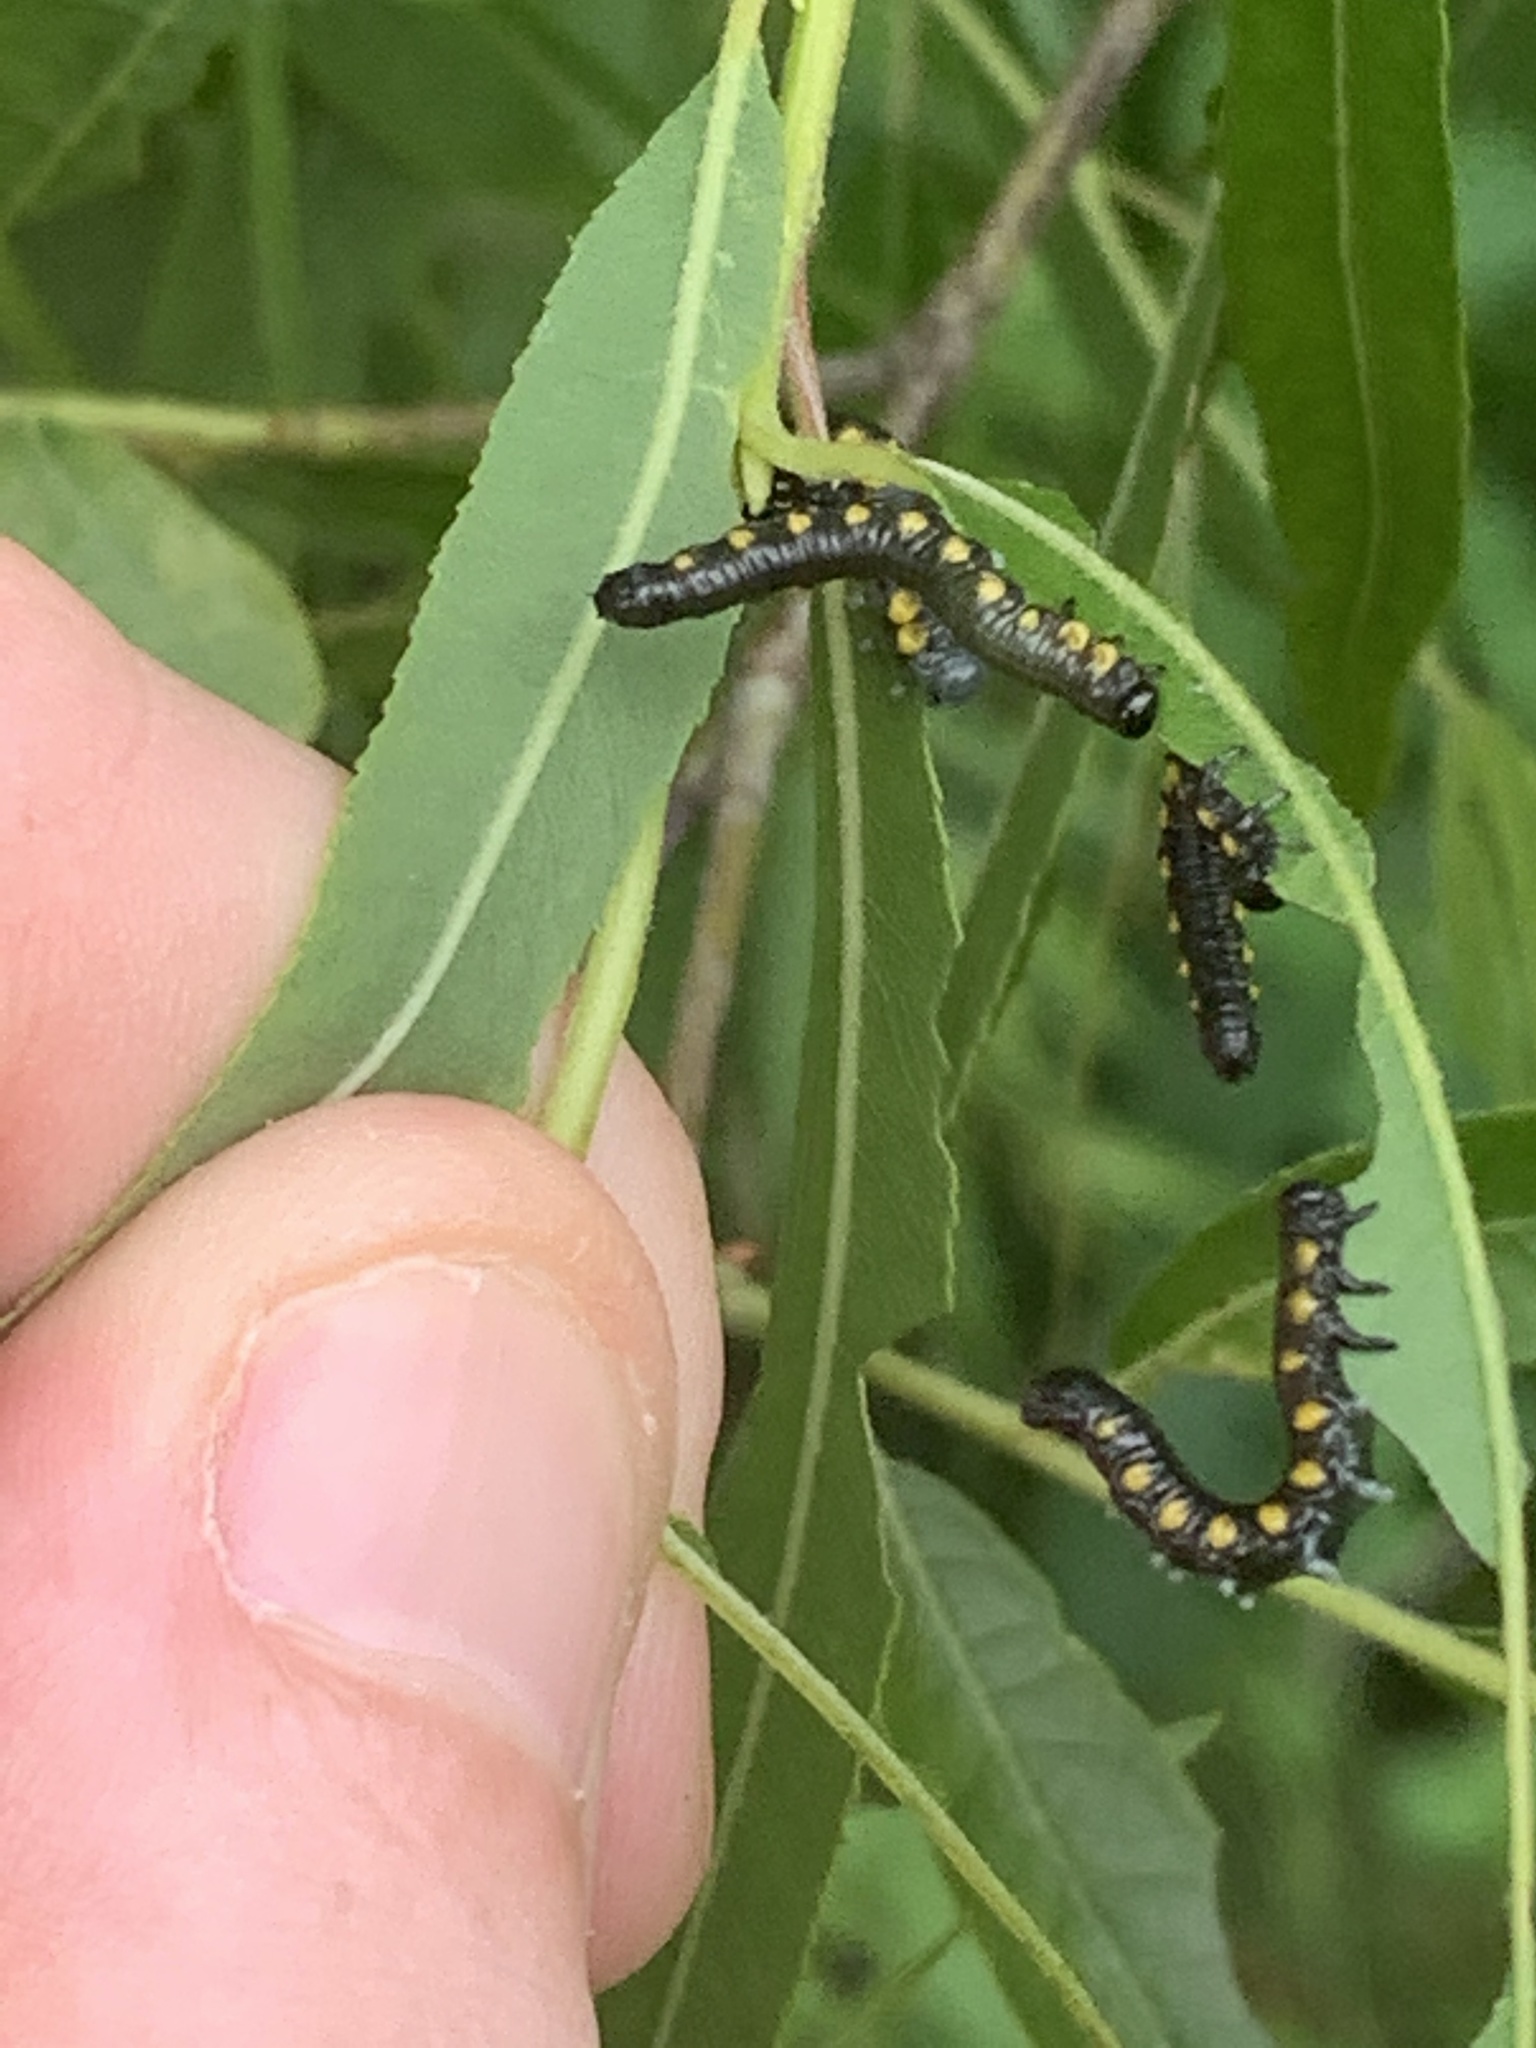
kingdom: Animalia
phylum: Arthropoda
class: Insecta
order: Hymenoptera
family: Tenthredinidae
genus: Euura
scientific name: Euura ventralis
